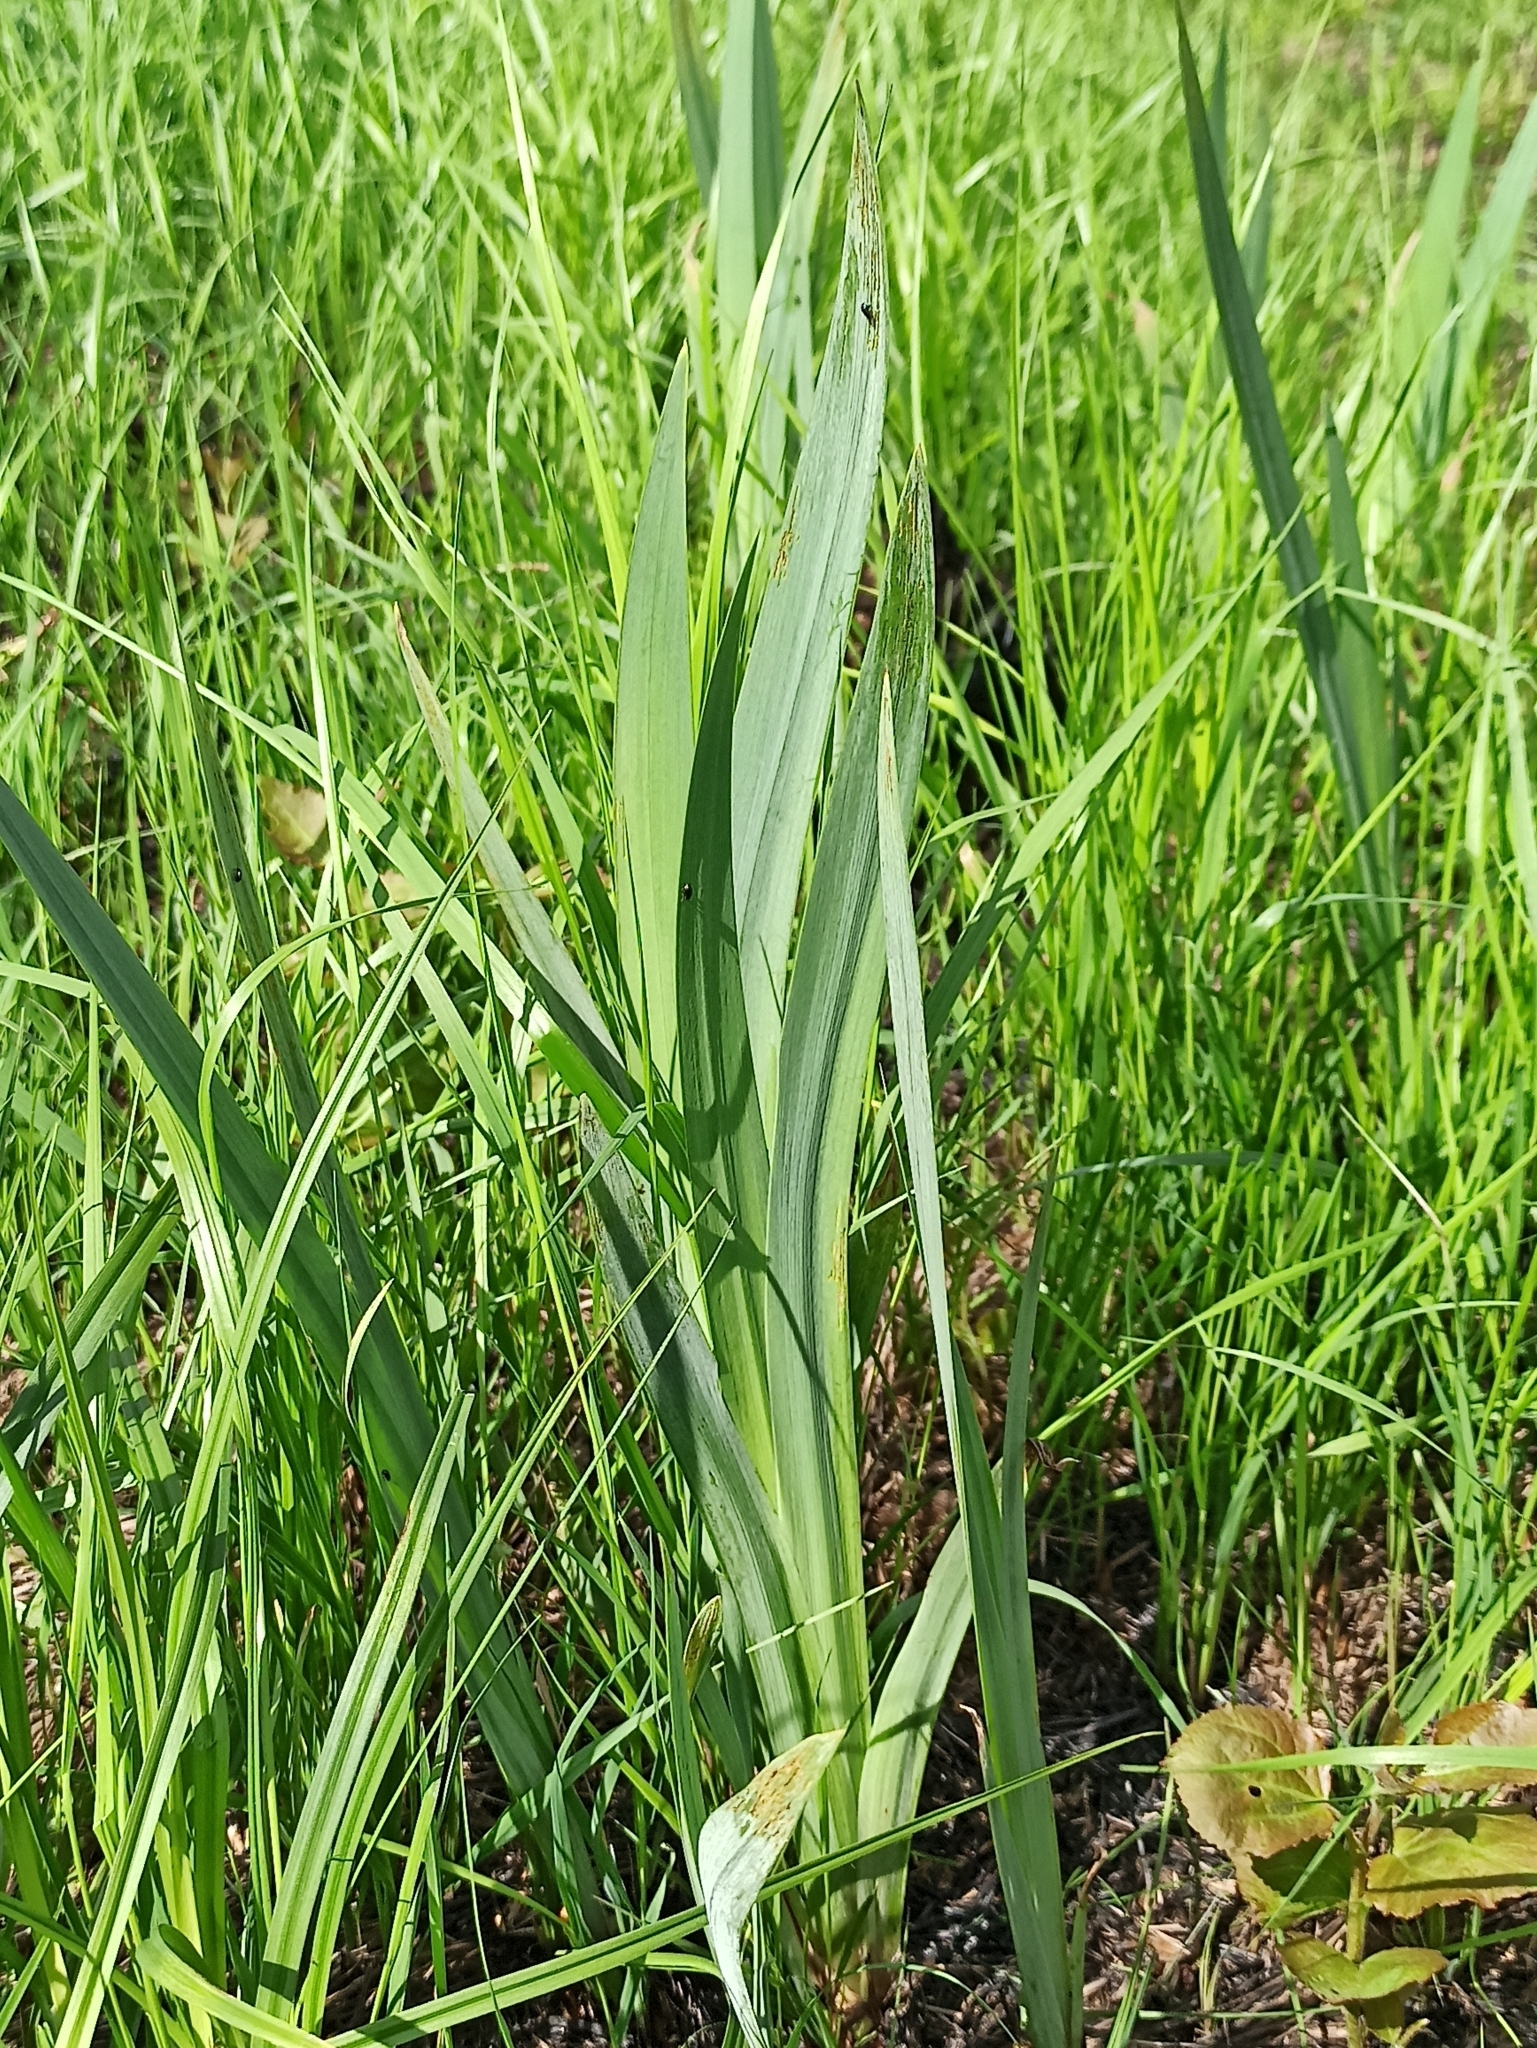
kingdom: Plantae
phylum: Tracheophyta
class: Liliopsida
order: Asparagales
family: Iridaceae
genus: Iris
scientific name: Iris pseudacorus
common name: Yellow flag
